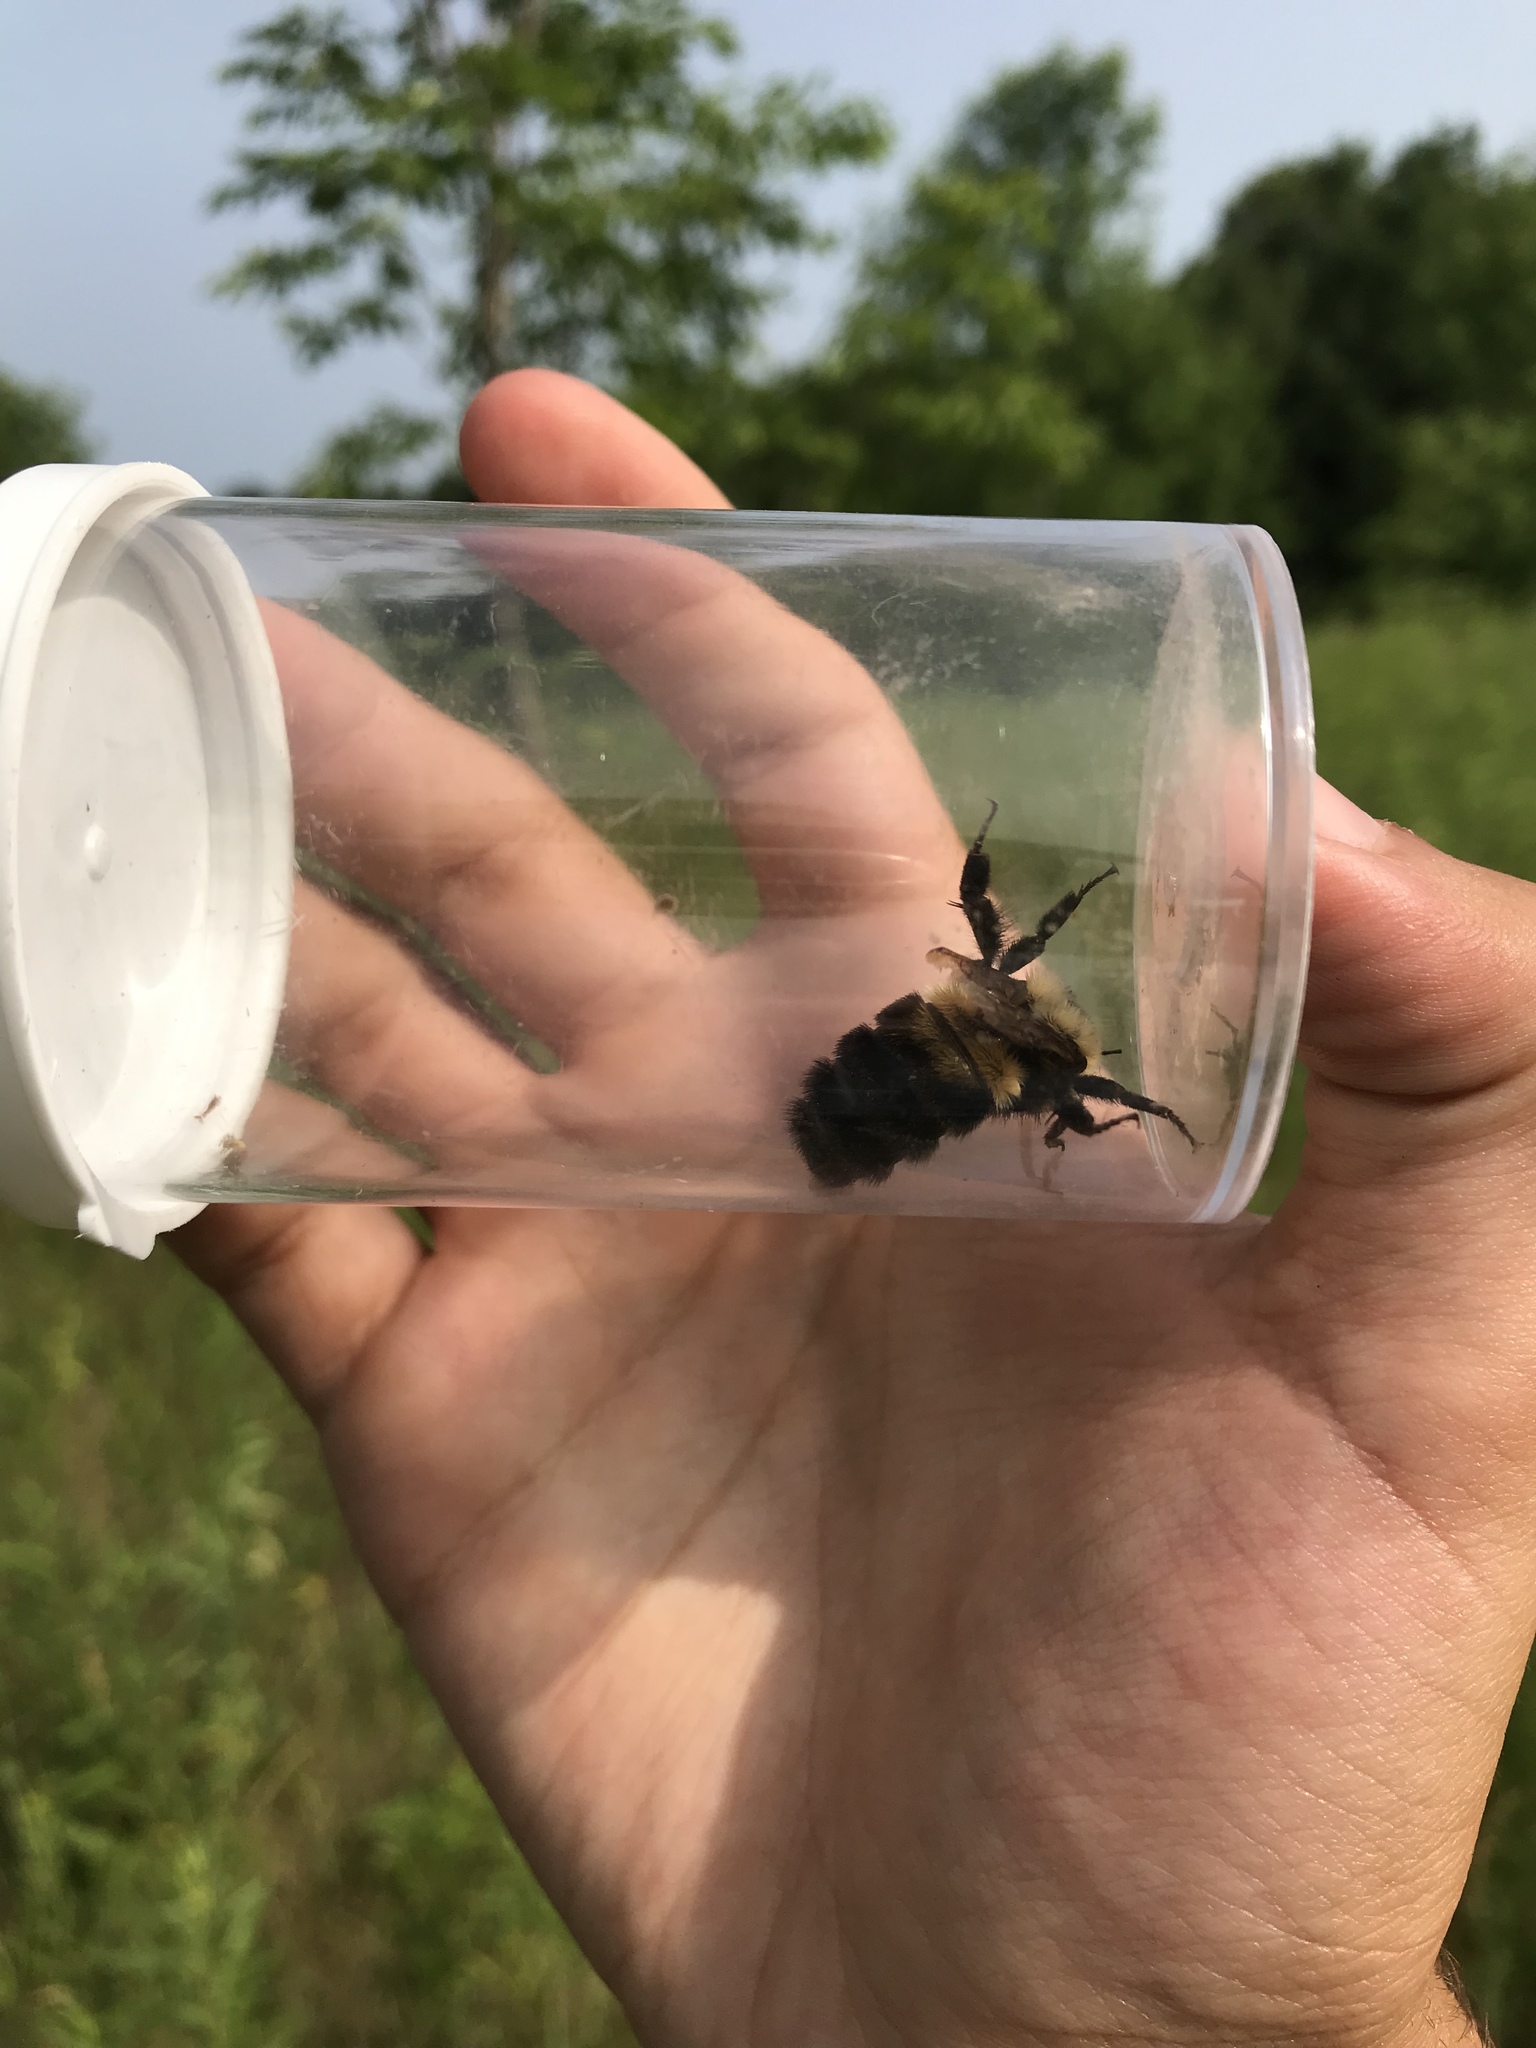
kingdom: Animalia
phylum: Arthropoda
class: Insecta
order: Hymenoptera
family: Apidae
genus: Bombus
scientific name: Bombus bimaculatus
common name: Two-spotted bumble bee
